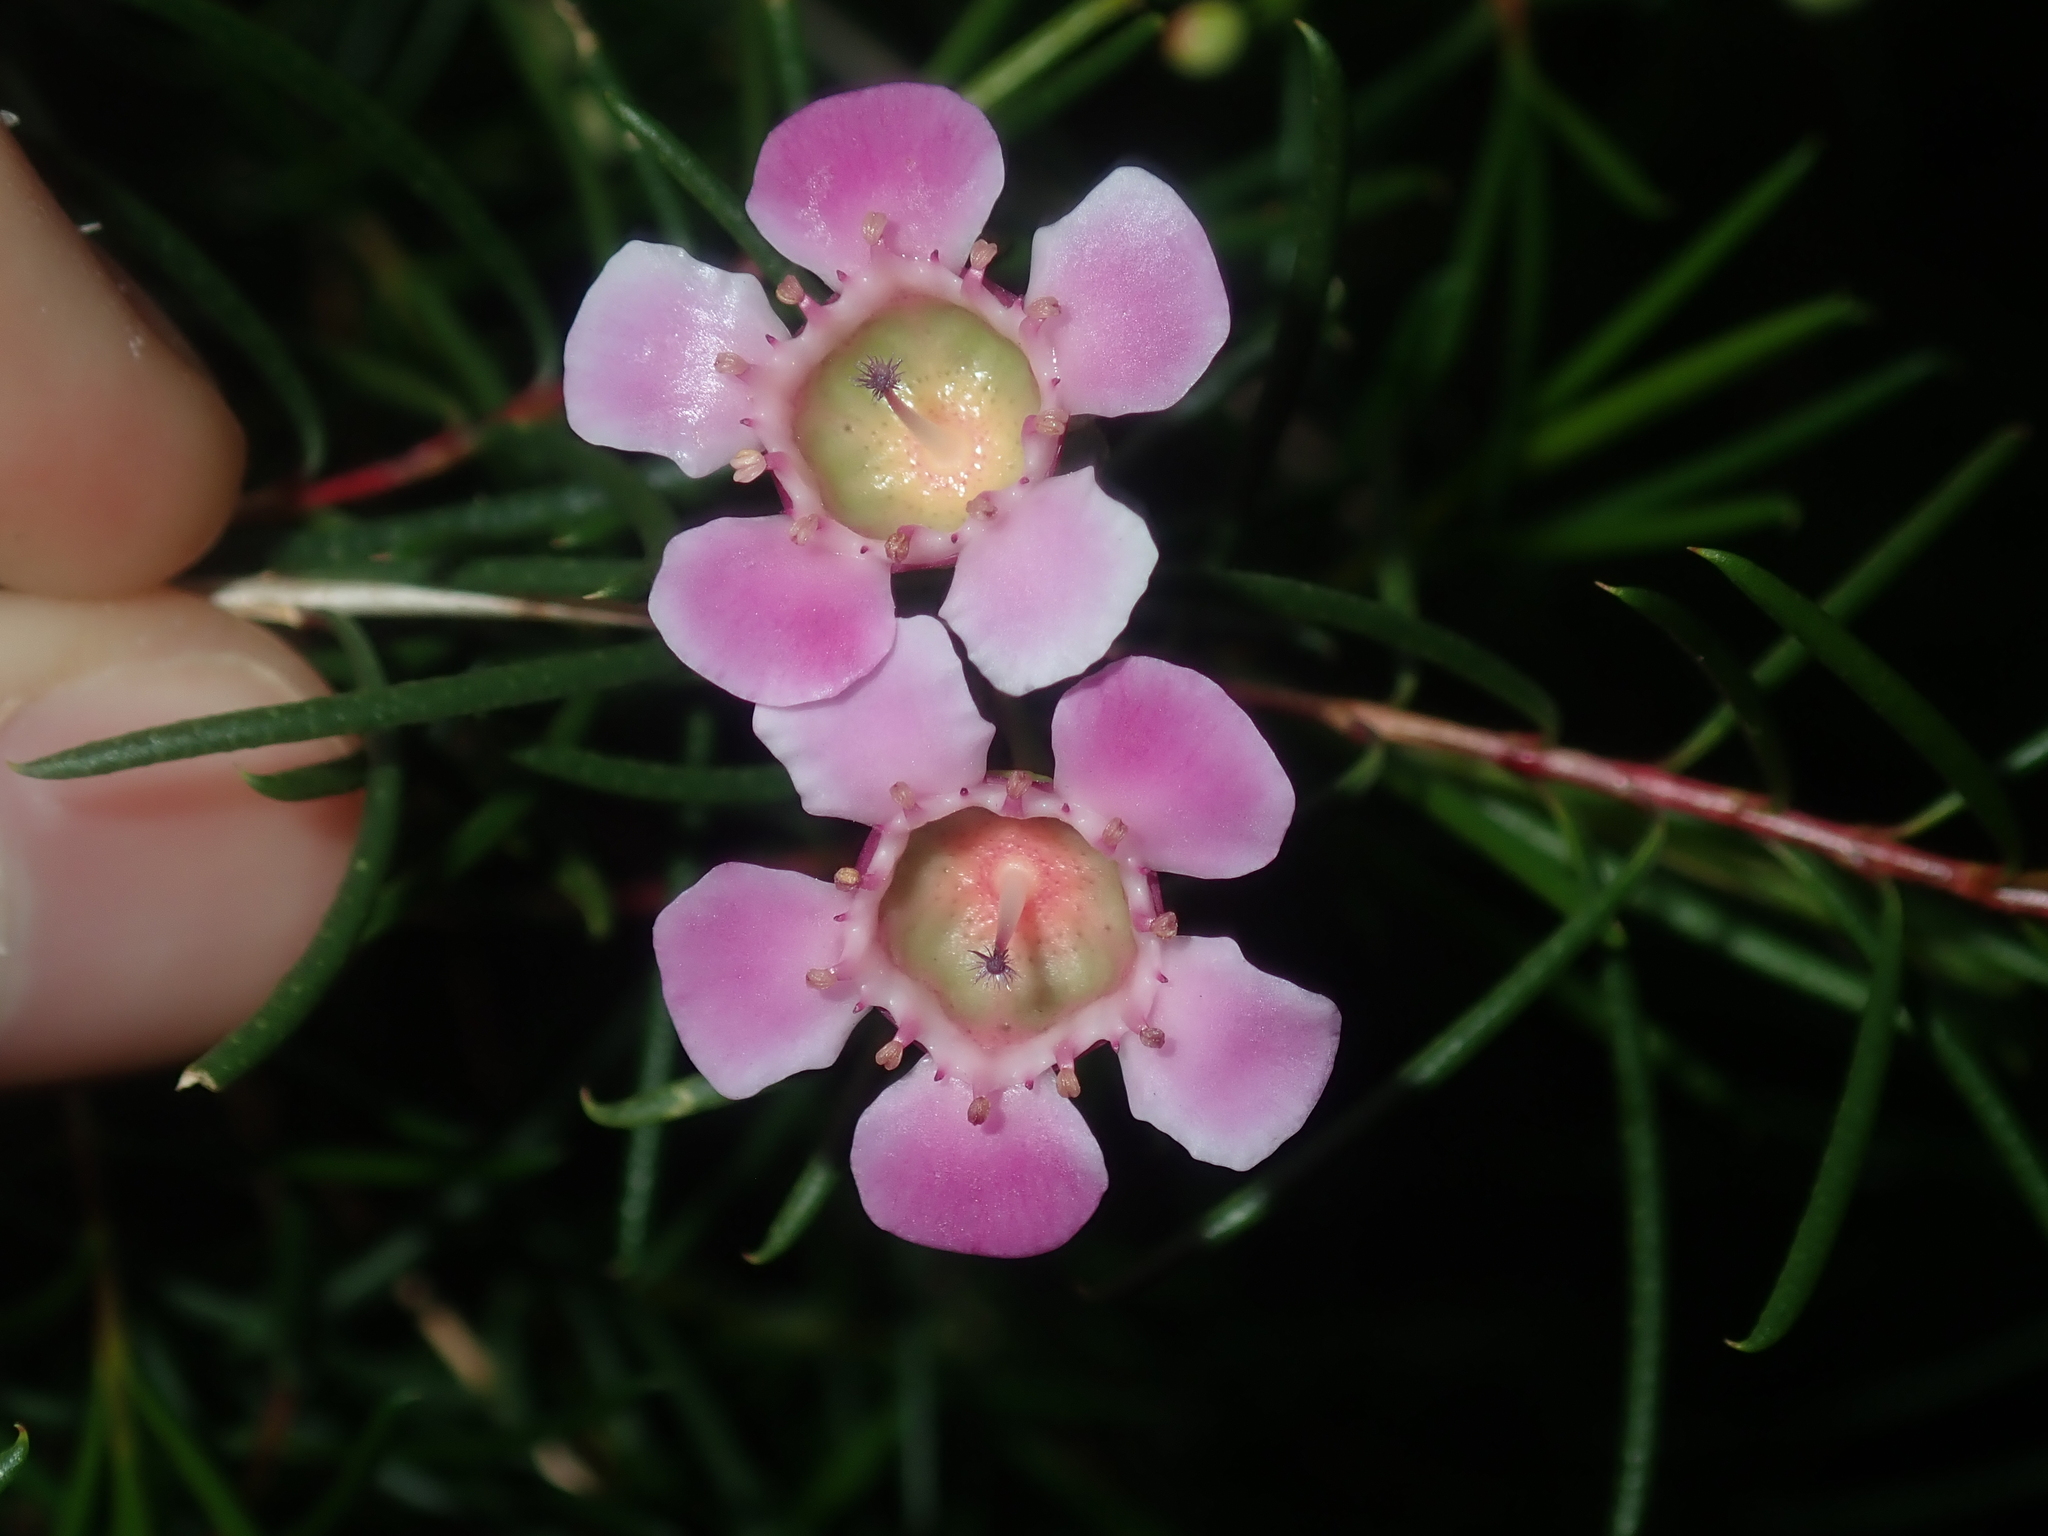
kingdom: Plantae
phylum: Tracheophyta
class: Magnoliopsida
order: Myrtales
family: Myrtaceae
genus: Chamelaucium
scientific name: Chamelaucium uncinatum
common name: Geraldton wax
